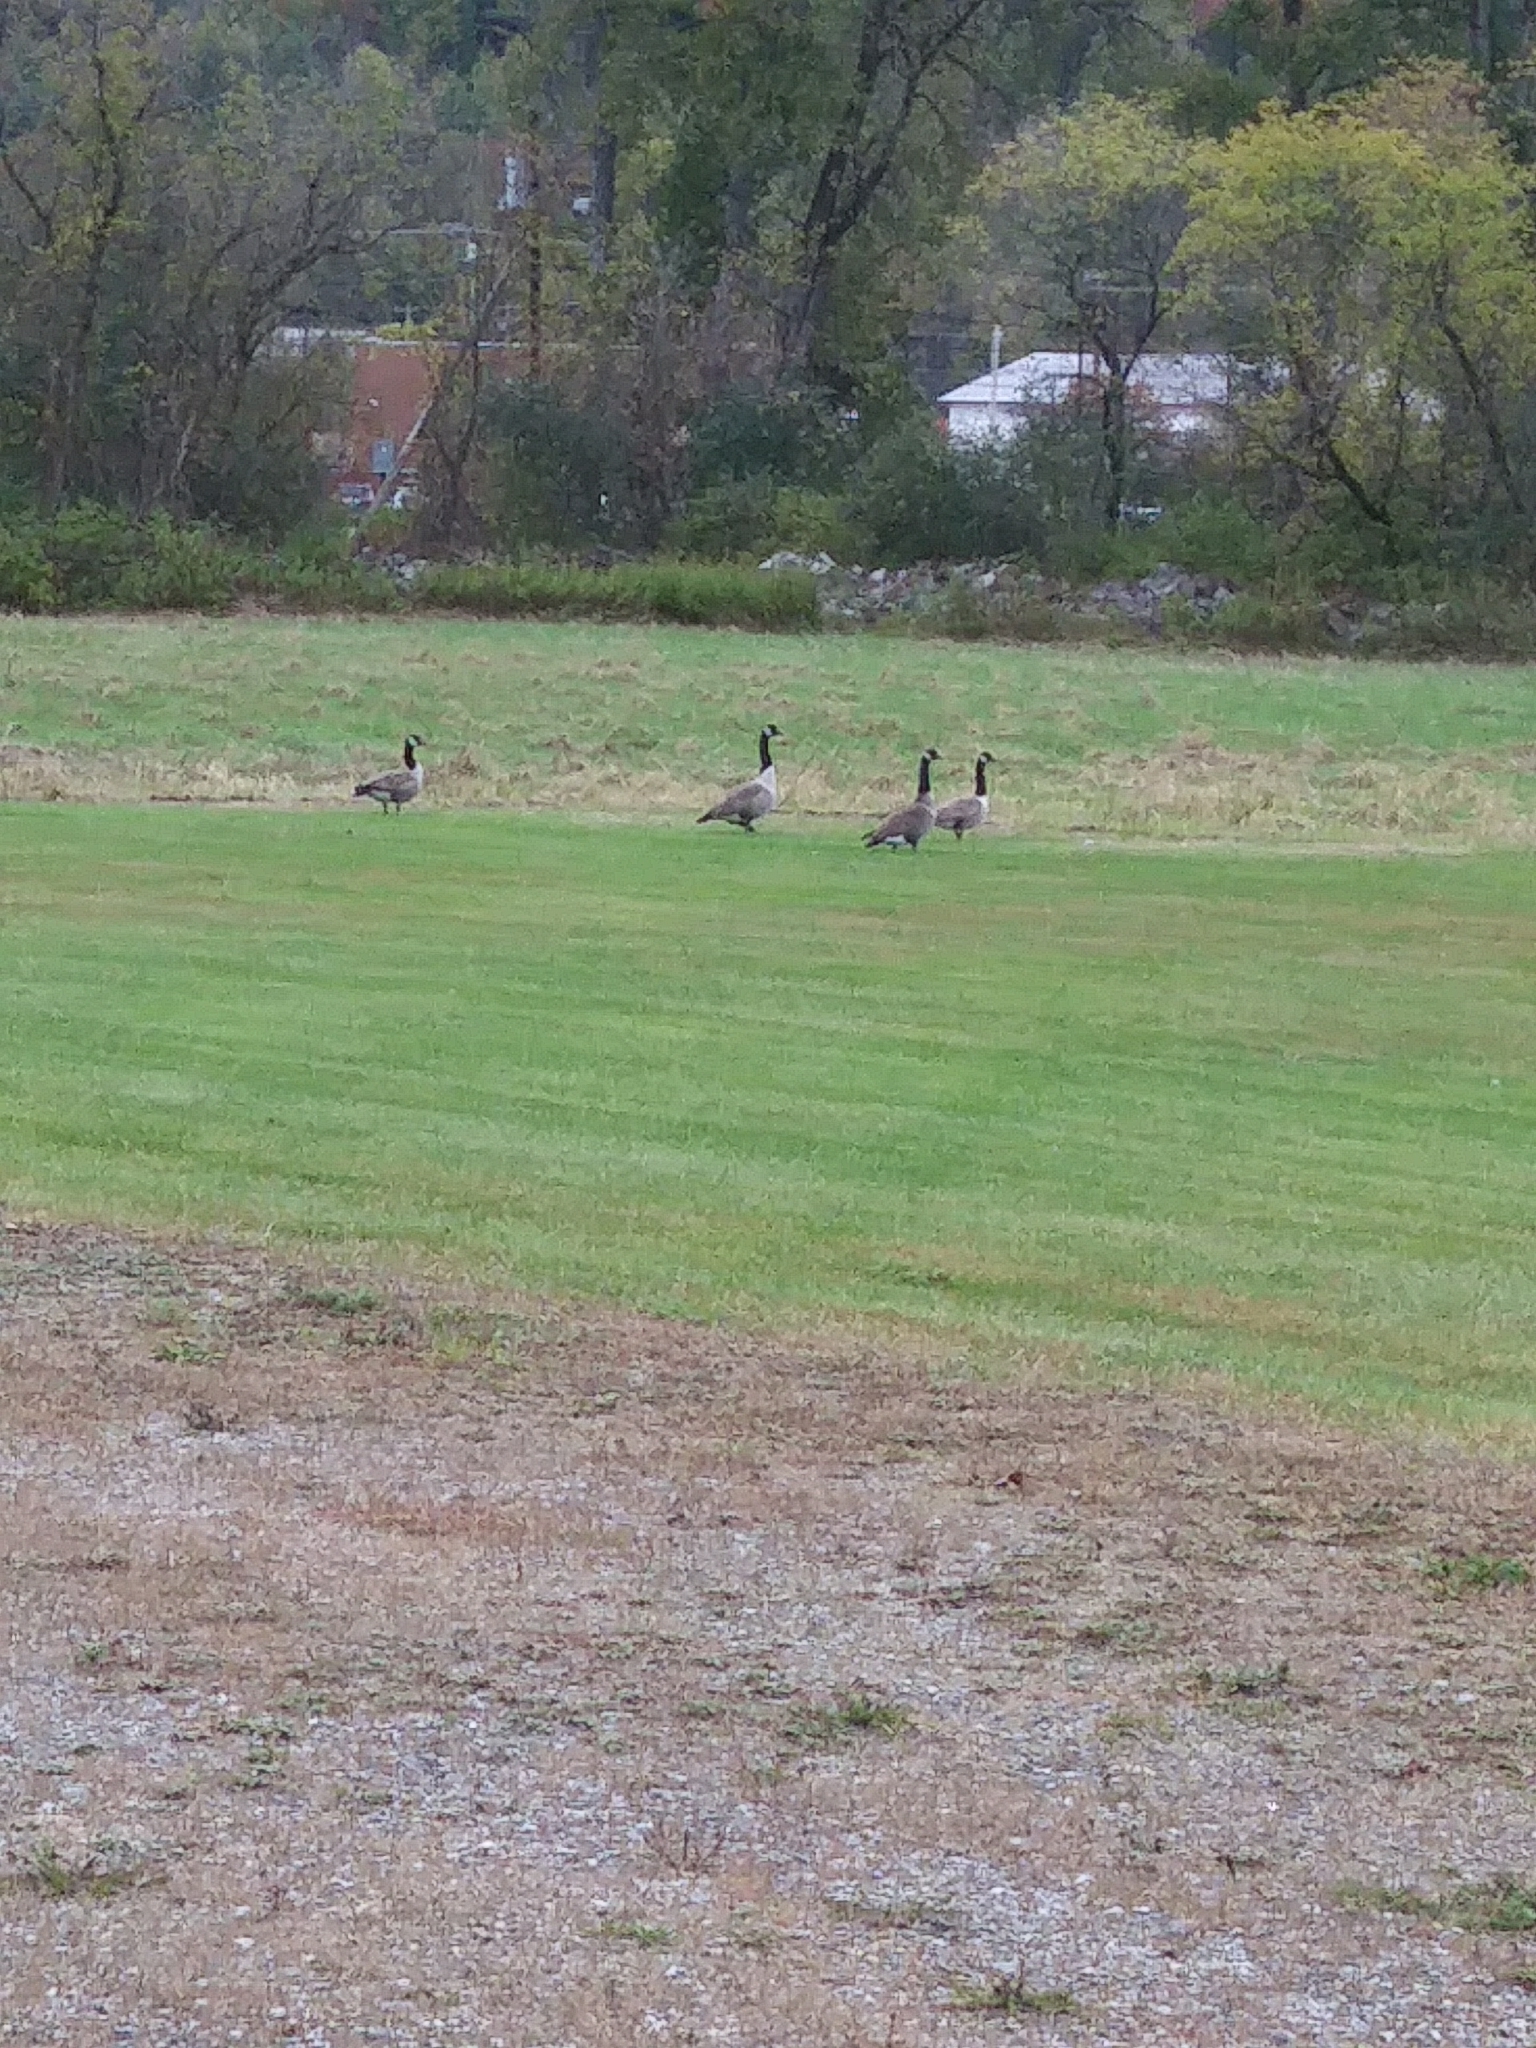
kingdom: Animalia
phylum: Chordata
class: Aves
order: Anseriformes
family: Anatidae
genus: Branta
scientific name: Branta canadensis
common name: Canada goose
